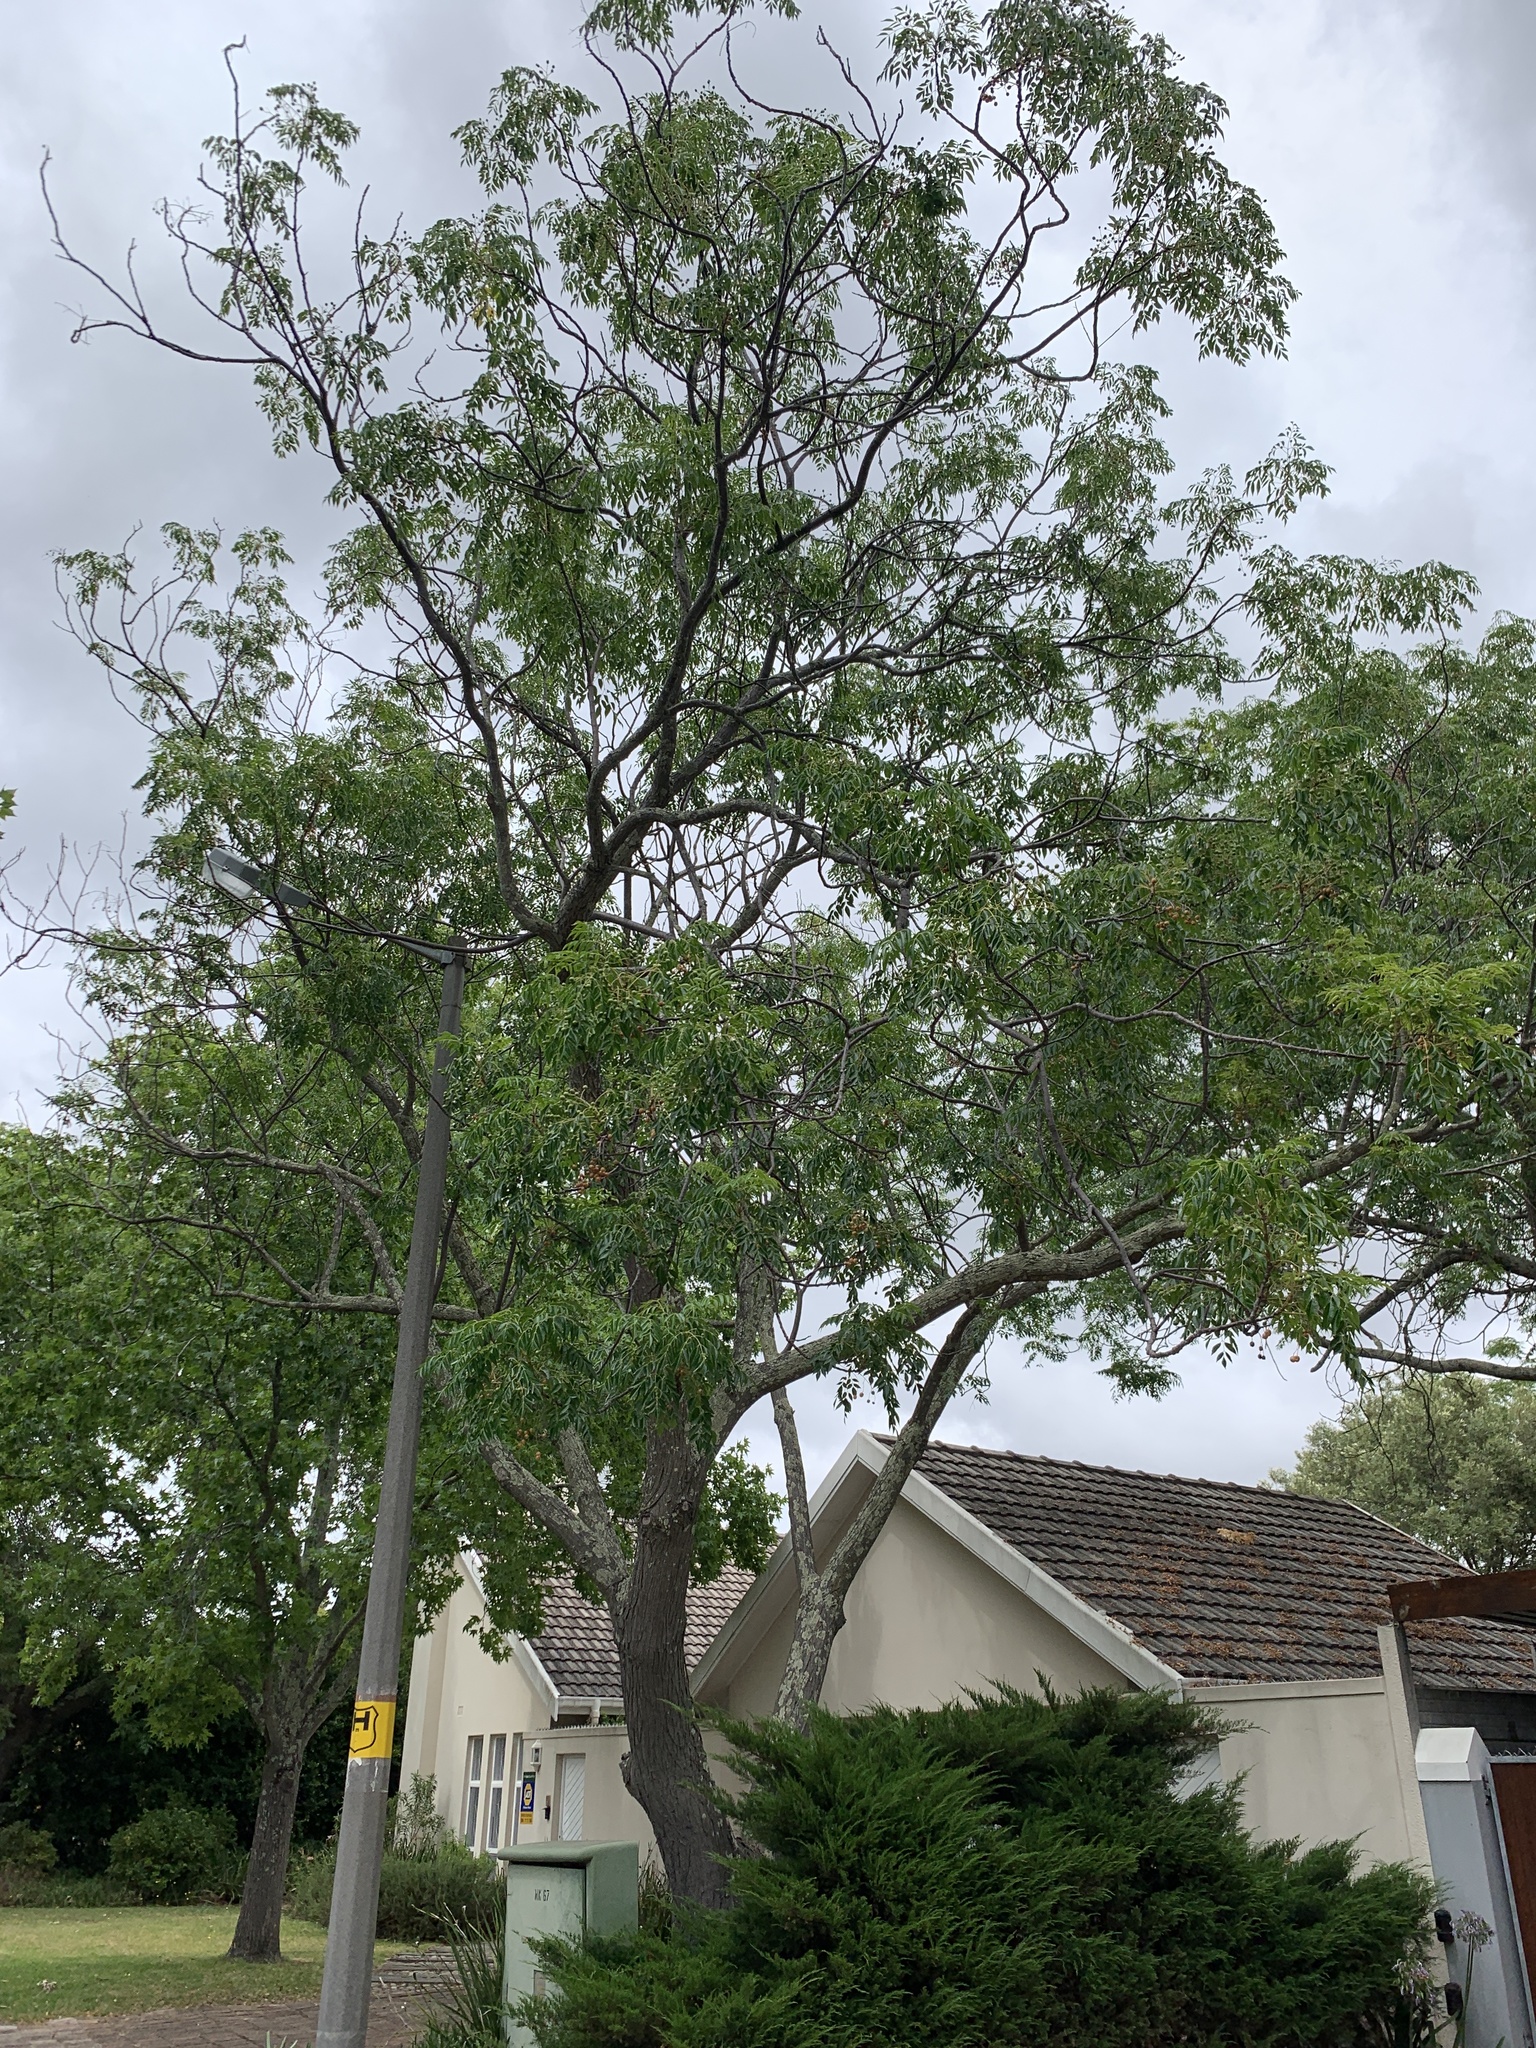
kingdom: Plantae
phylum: Tracheophyta
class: Magnoliopsida
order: Sapindales
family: Meliaceae
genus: Melia
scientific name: Melia azedarach
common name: Chinaberrytree
